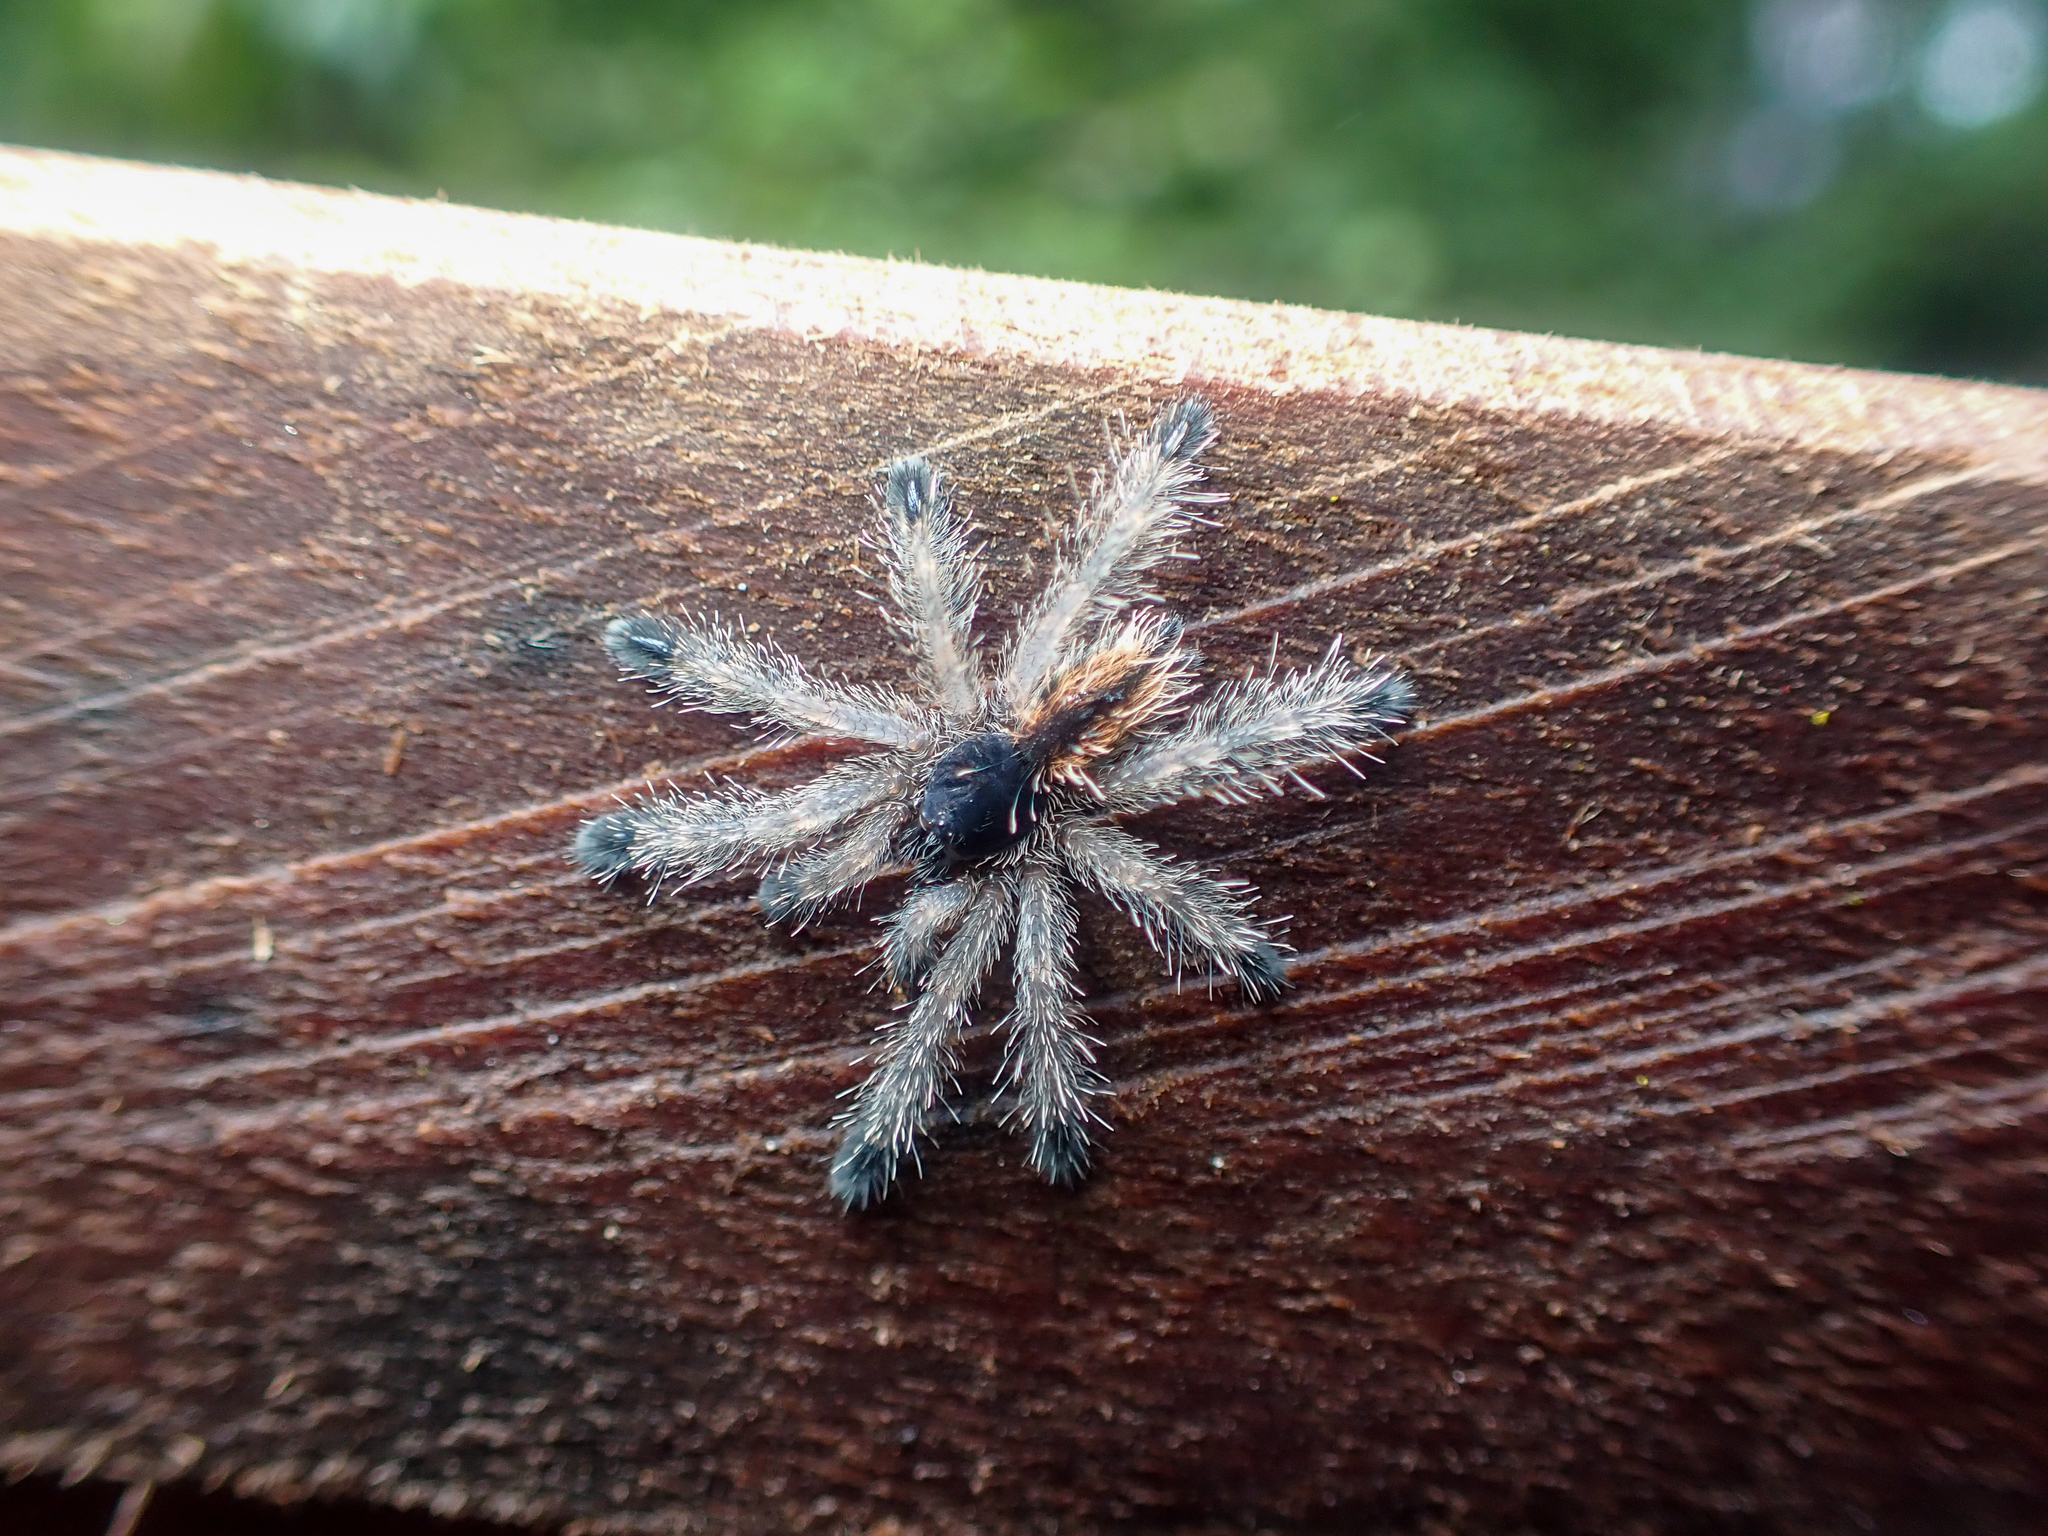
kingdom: Animalia
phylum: Arthropoda
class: Arachnida
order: Araneae
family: Theraphosidae
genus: Avicularia
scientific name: Avicularia avicularia
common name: Tarantula spiders
